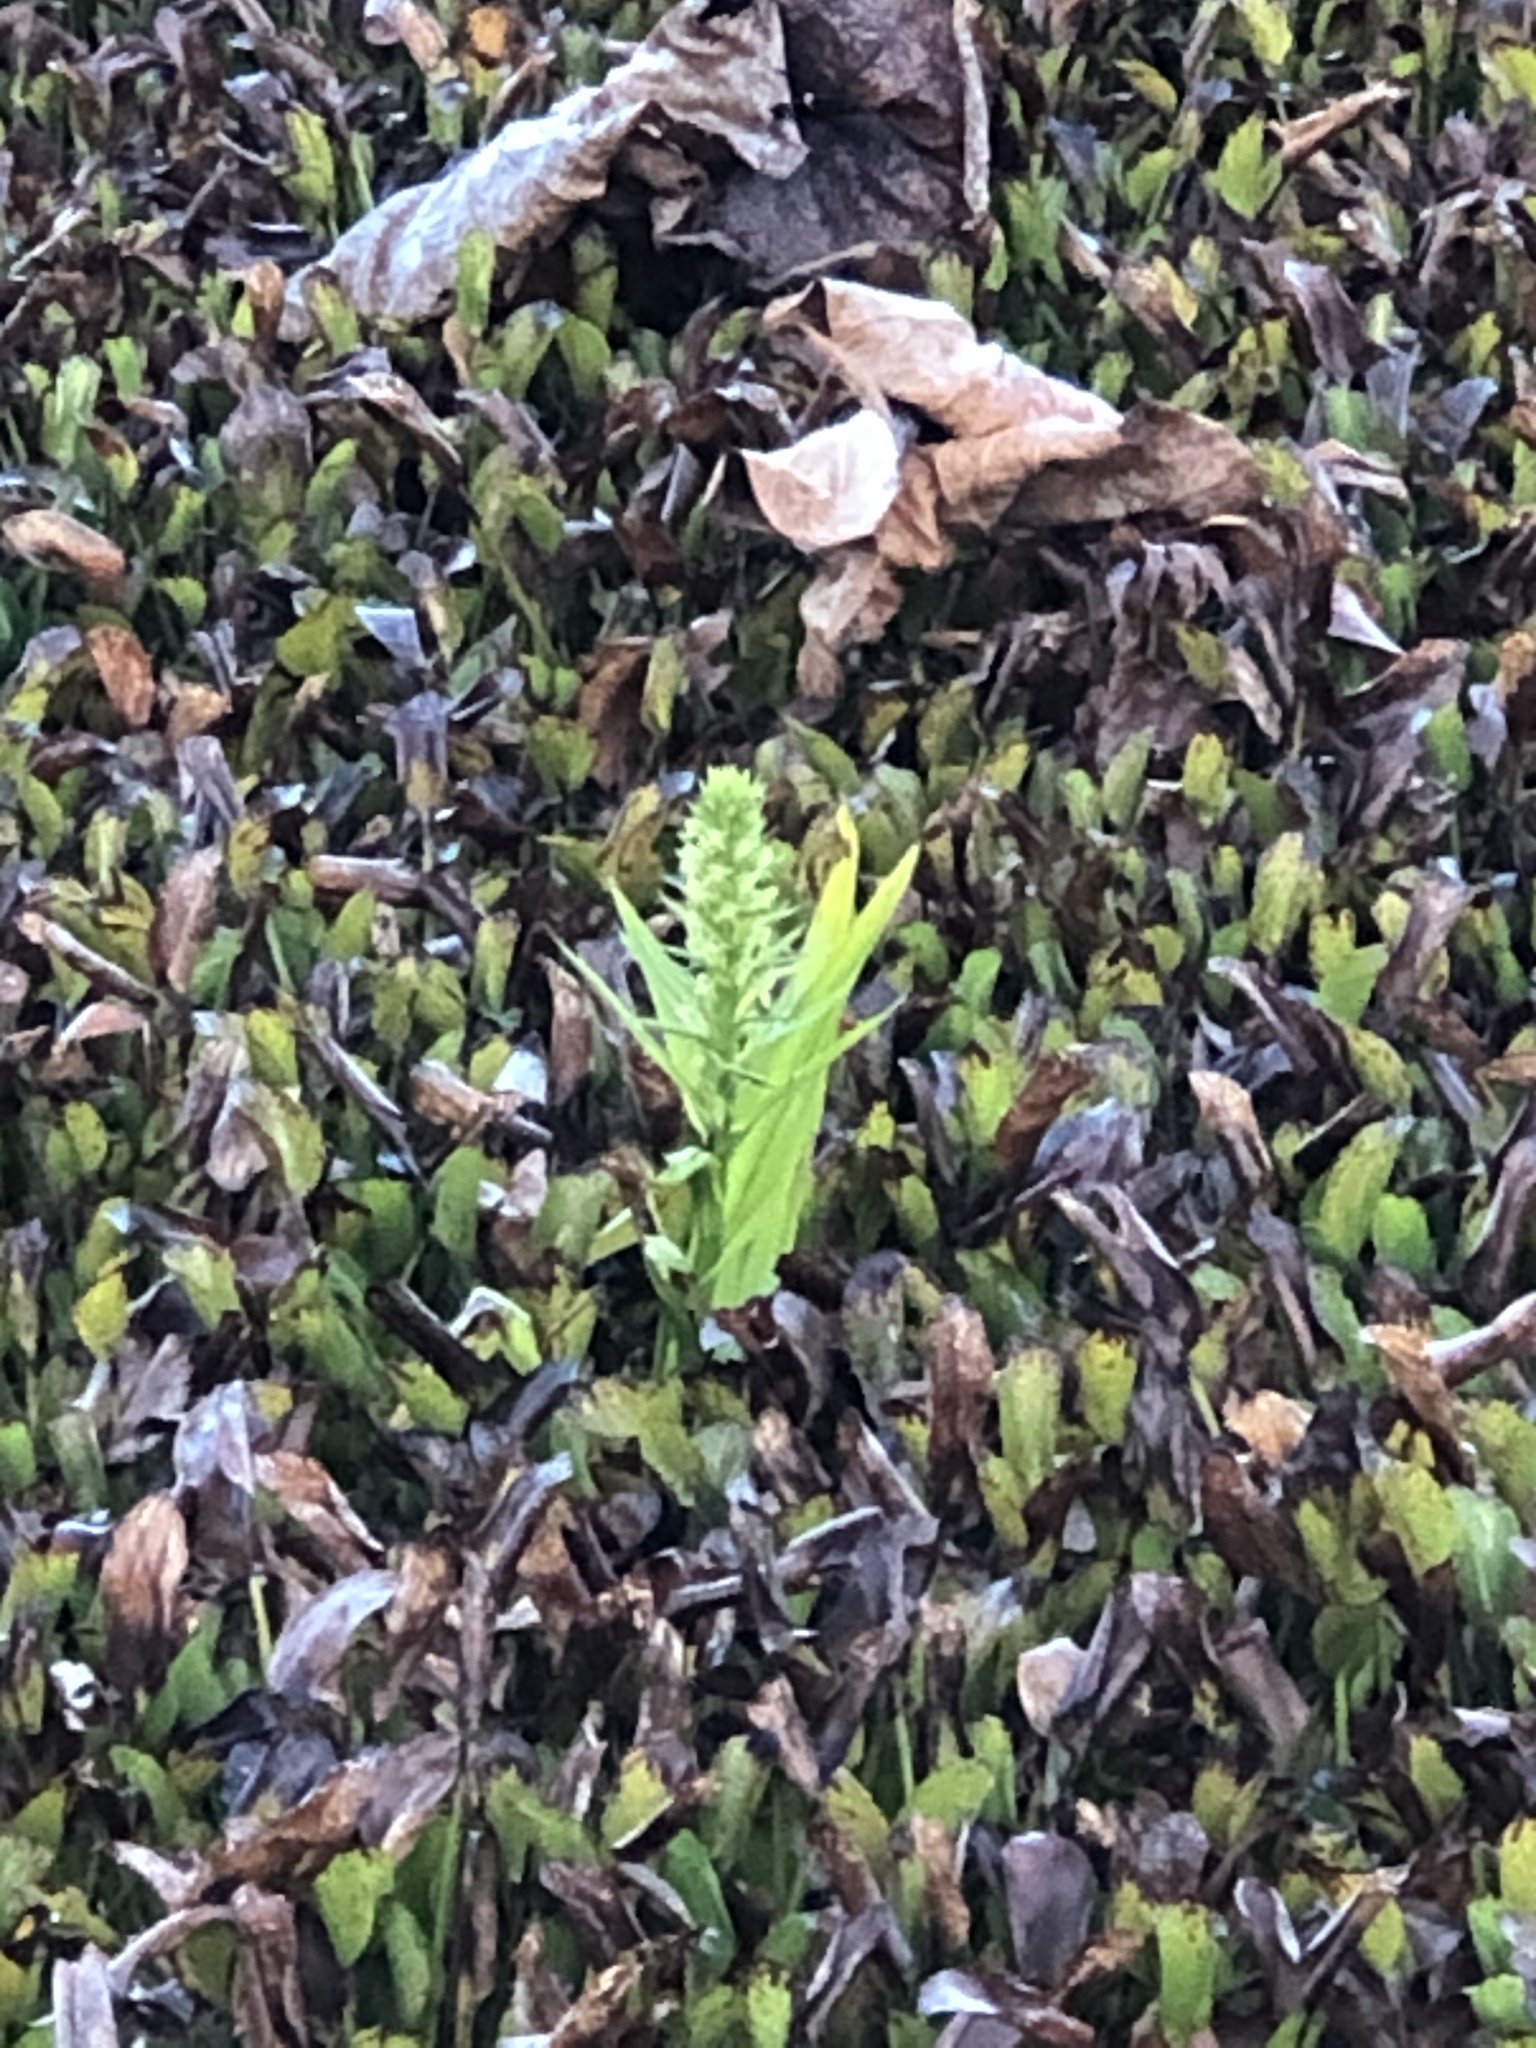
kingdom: Plantae
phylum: Tracheophyta
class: Liliopsida
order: Asparagales
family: Orchidaceae
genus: Habenaria
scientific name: Habenaria repens
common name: Water orchid
